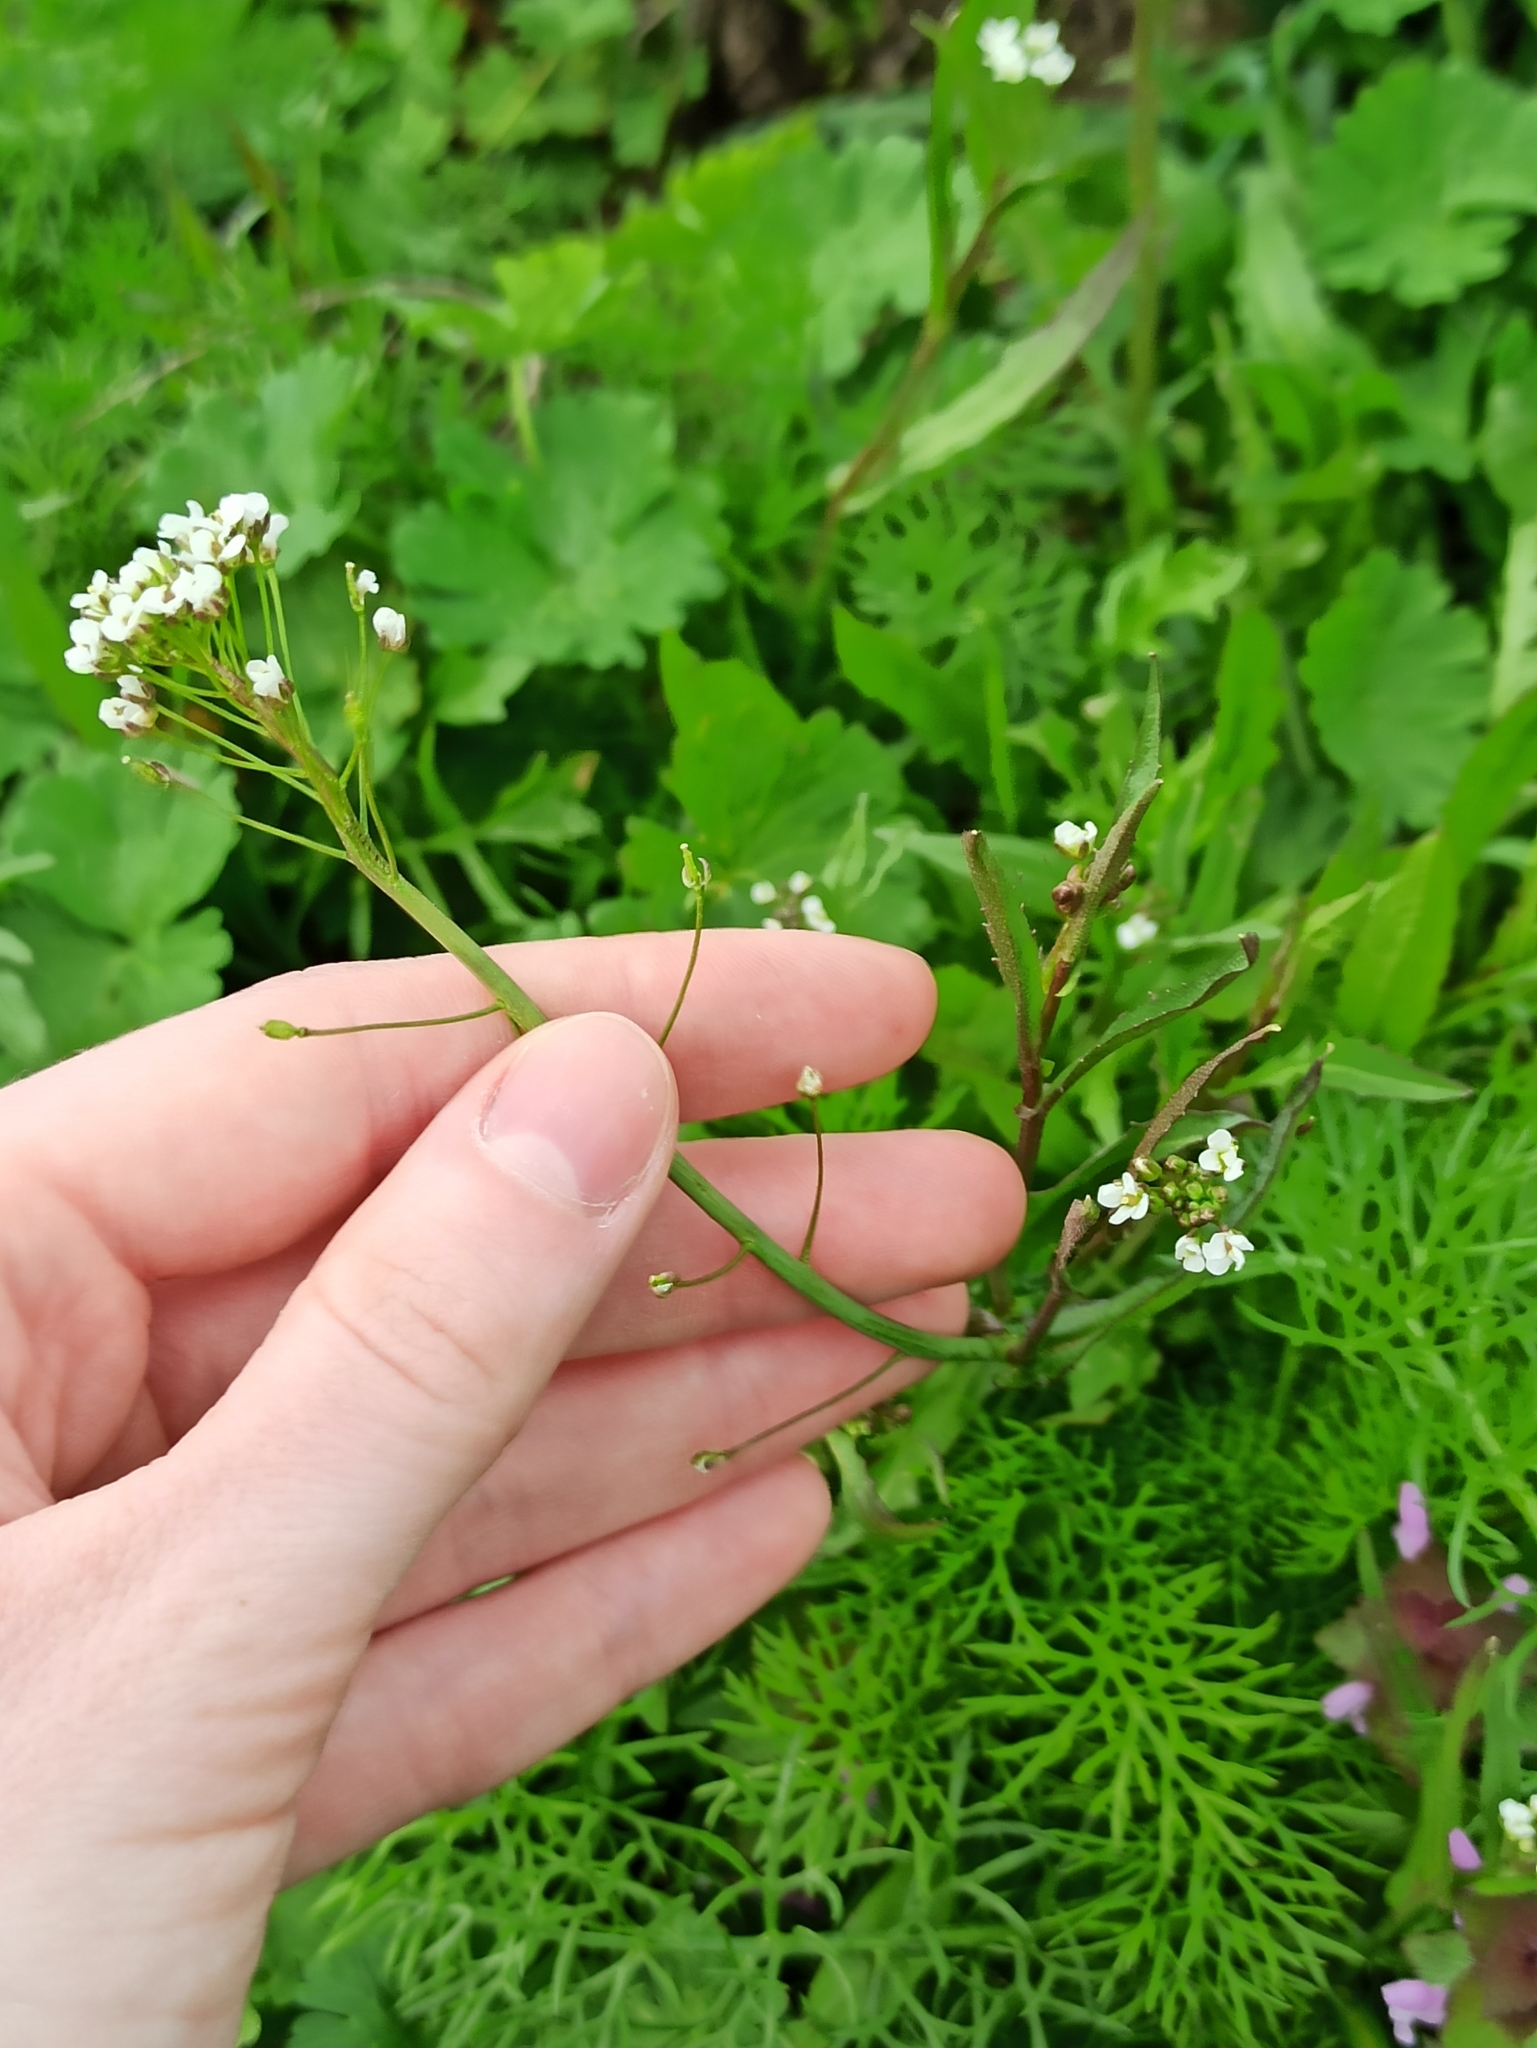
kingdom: Plantae
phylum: Tracheophyta
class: Magnoliopsida
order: Brassicales
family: Brassicaceae
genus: Capsella
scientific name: Capsella bursa-pastoris
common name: Shepherd's purse
